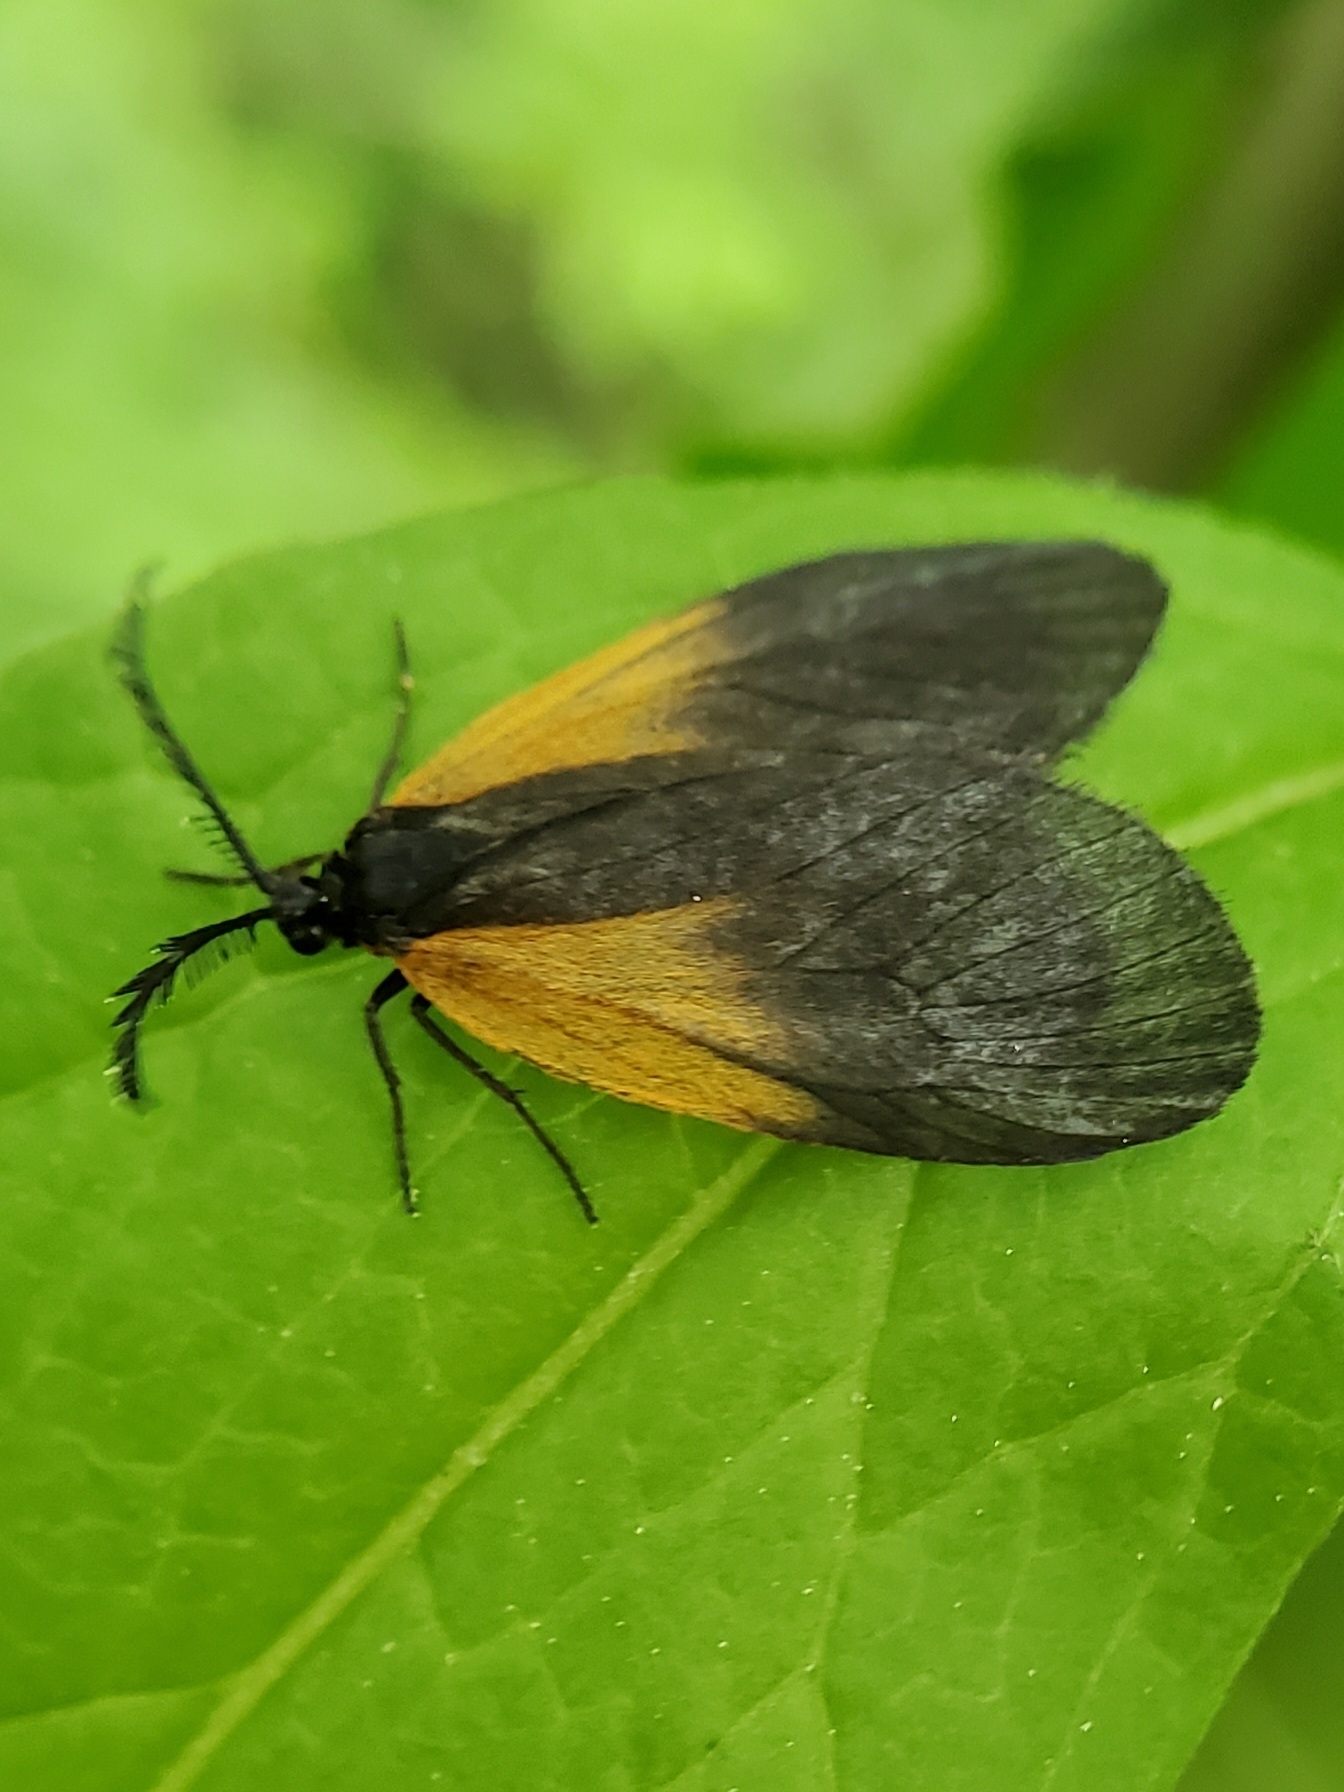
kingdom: Animalia
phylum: Arthropoda
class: Insecta
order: Lepidoptera
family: Zygaenidae
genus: Malthaca
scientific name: Malthaca dimidiata
